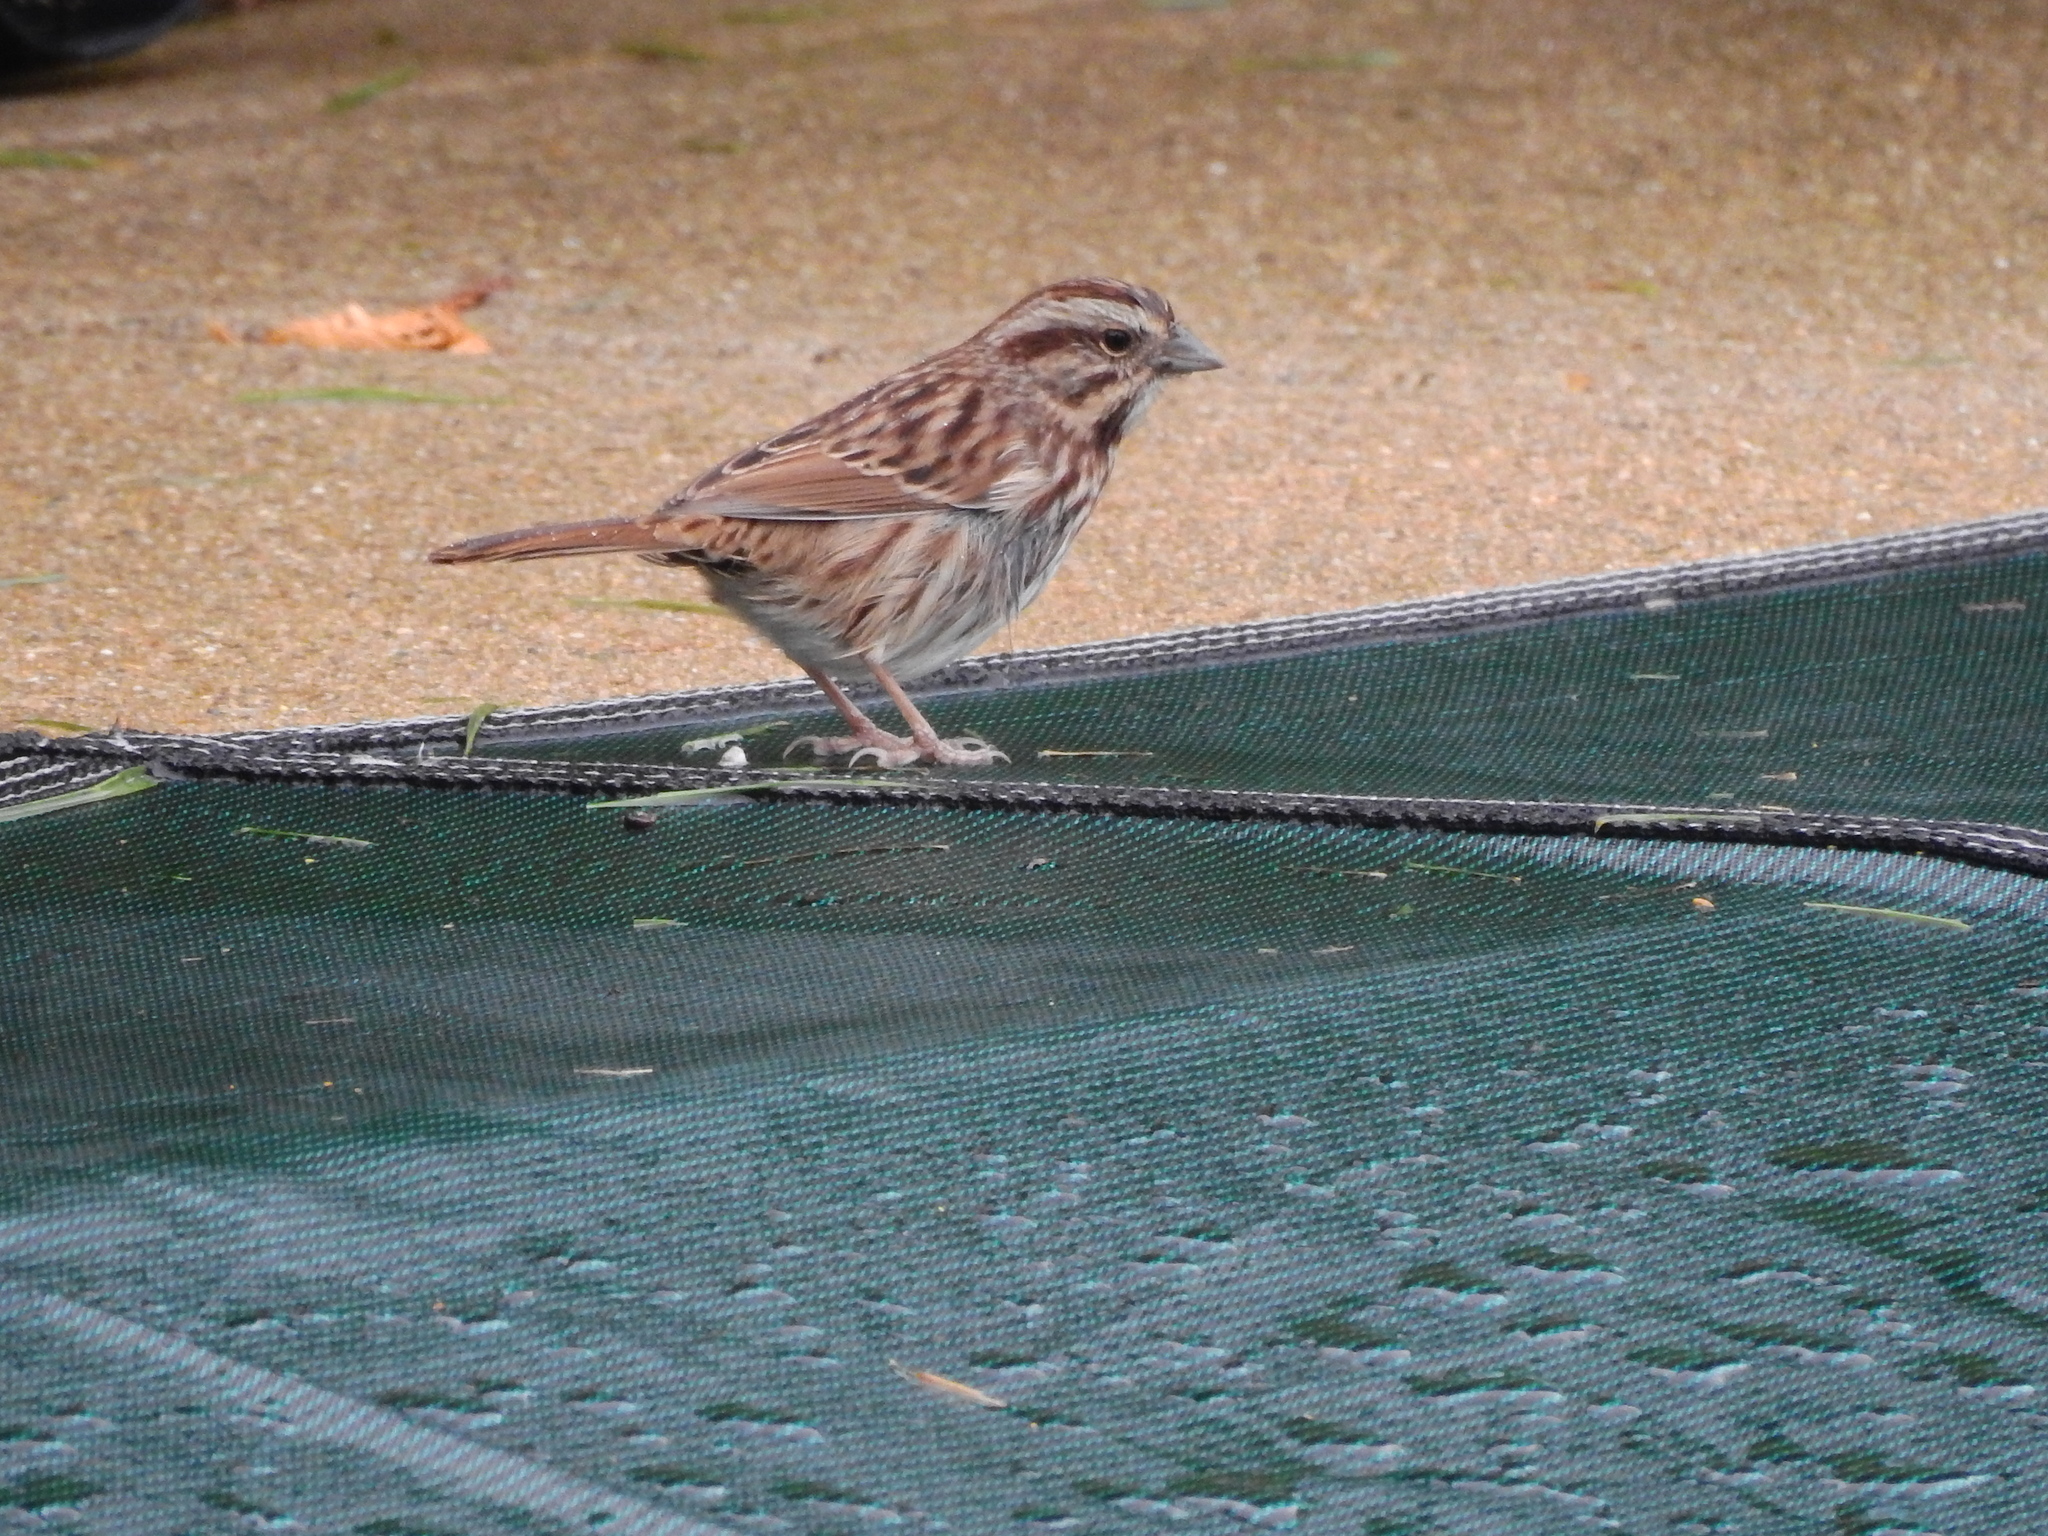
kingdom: Animalia
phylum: Chordata
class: Aves
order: Passeriformes
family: Passerellidae
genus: Melospiza
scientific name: Melospiza melodia
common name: Song sparrow
